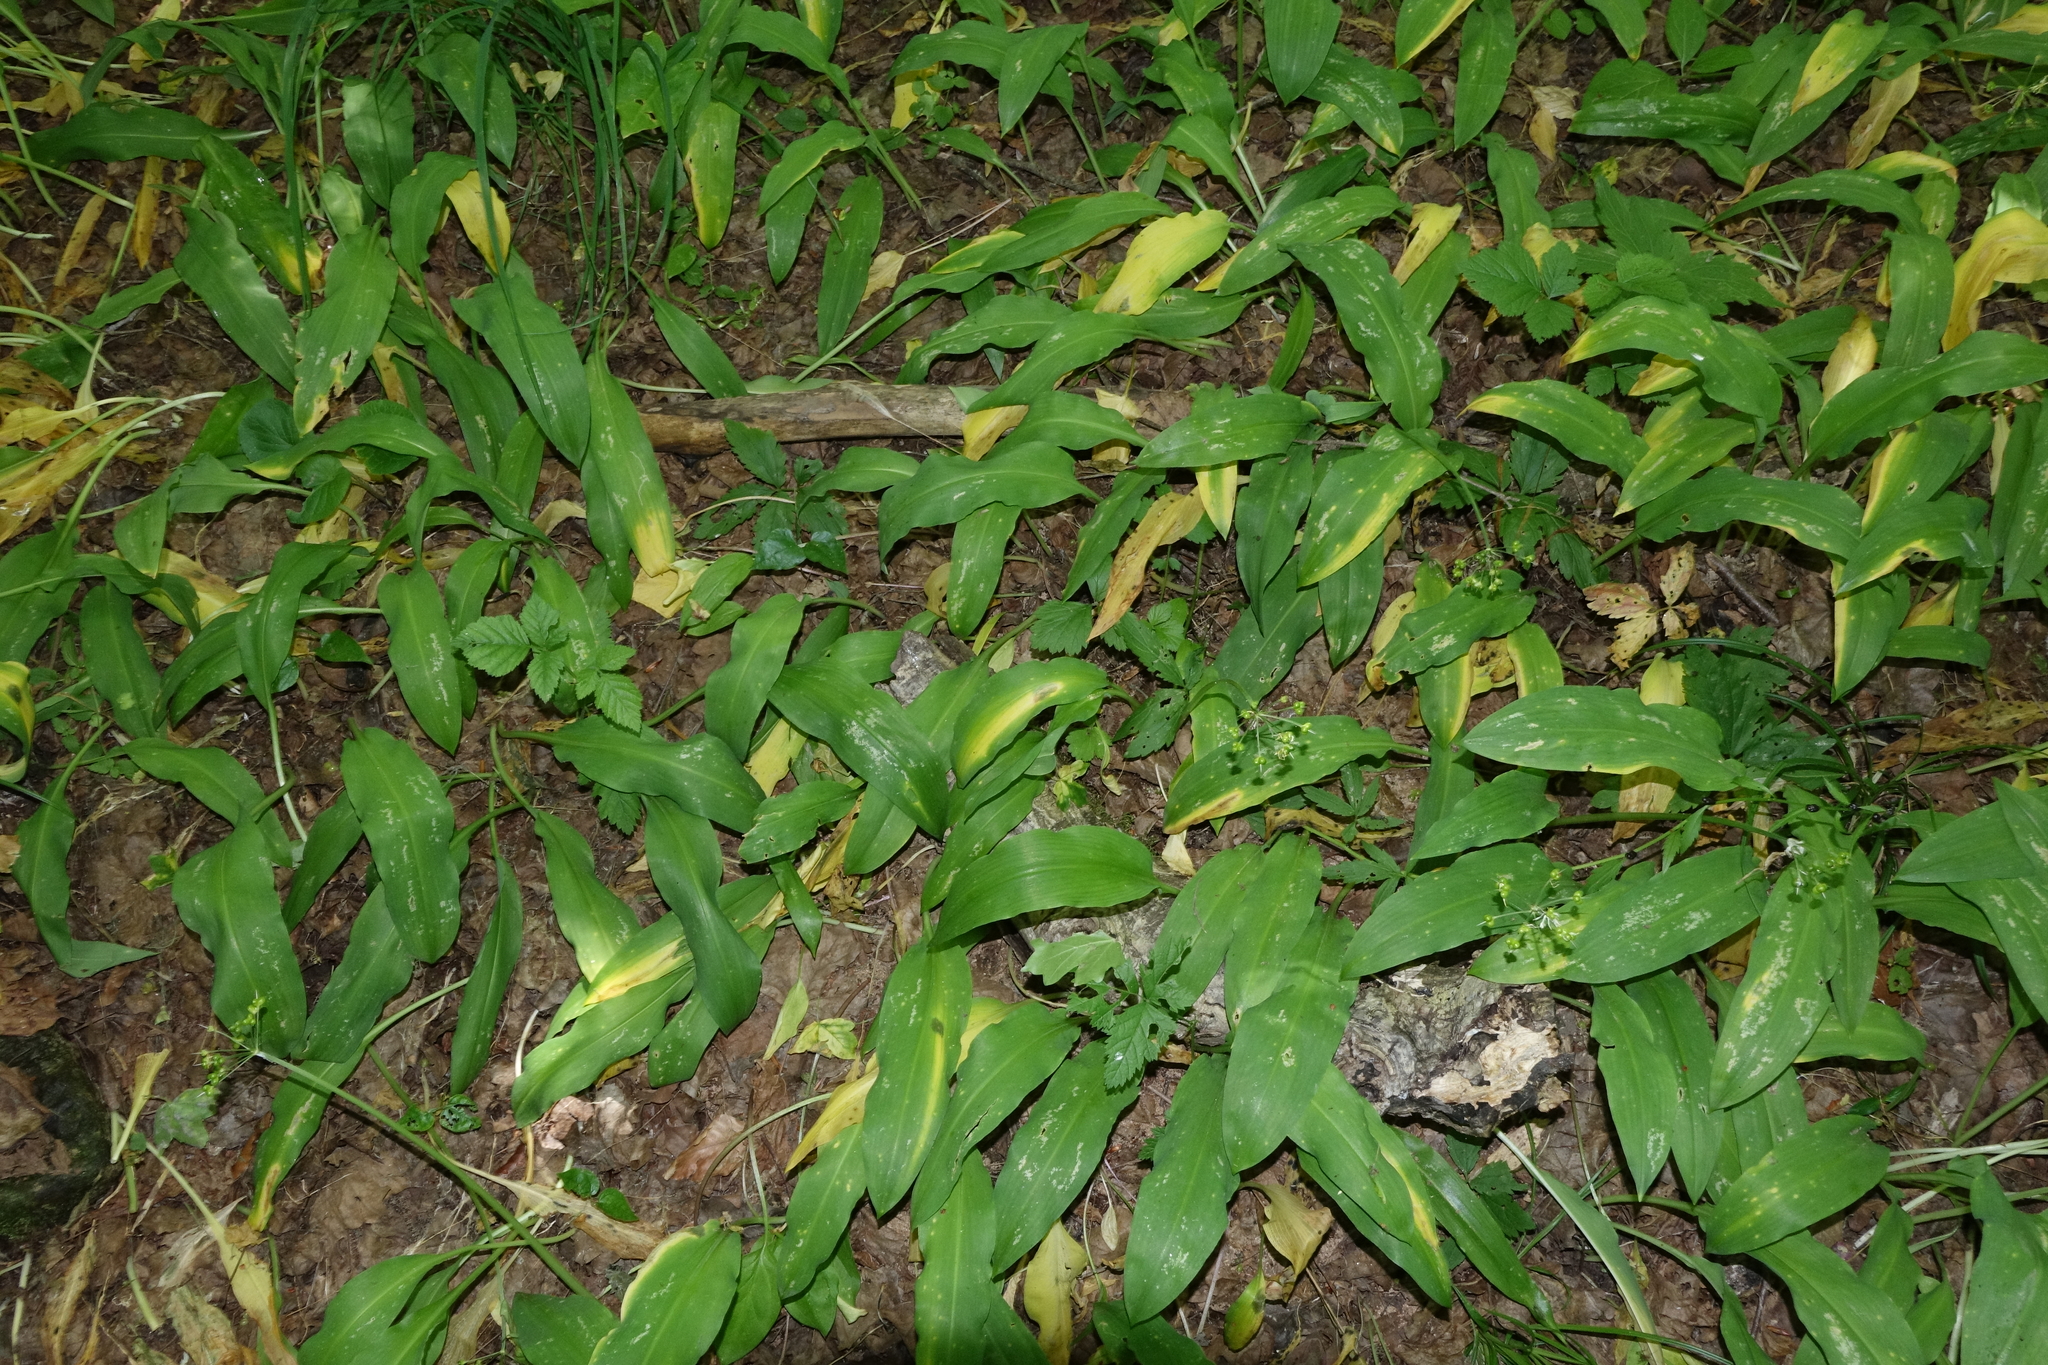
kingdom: Plantae
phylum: Tracheophyta
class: Liliopsida
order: Asparagales
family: Amaryllidaceae
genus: Allium
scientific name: Allium ursinum
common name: Ramsons
